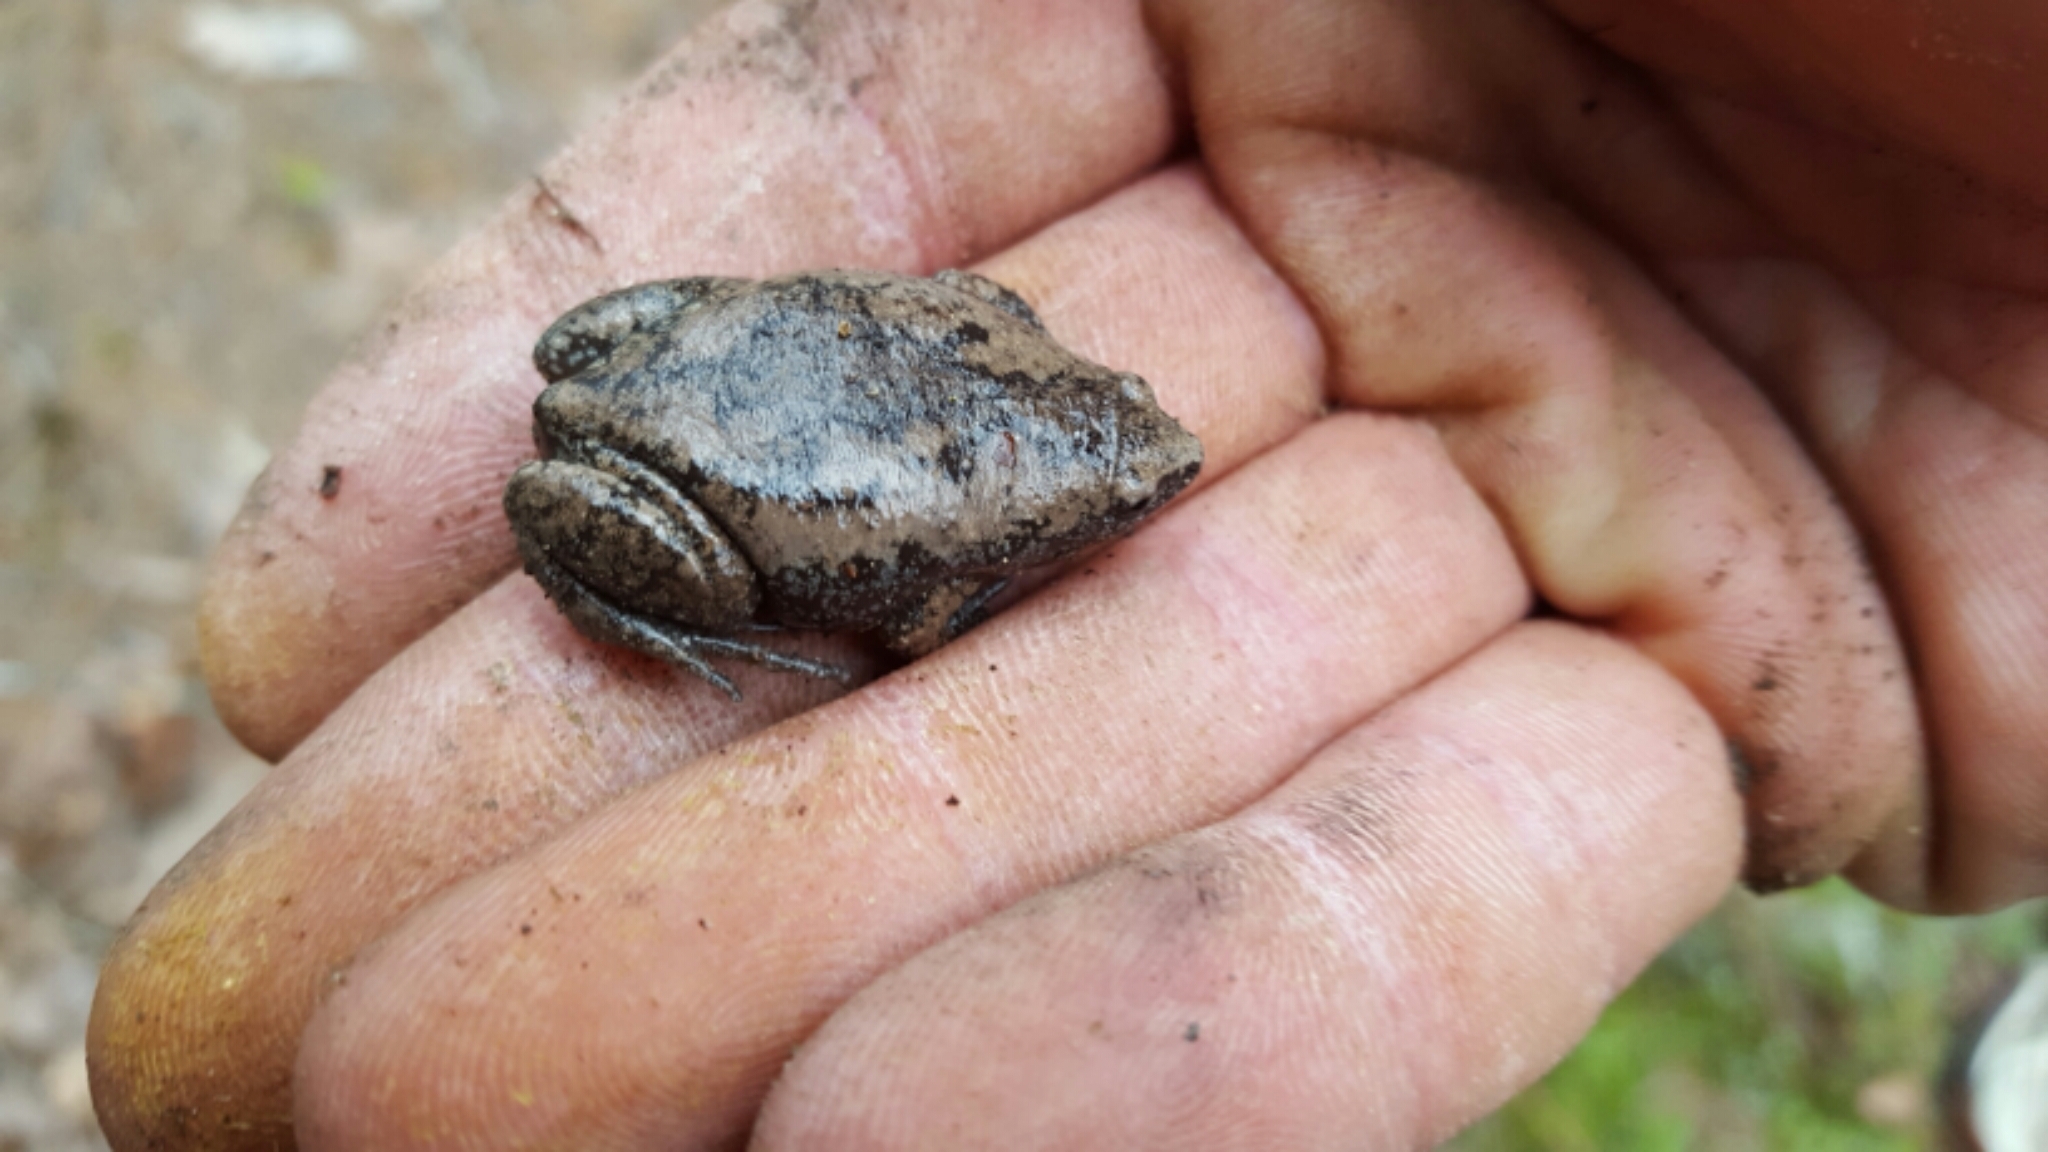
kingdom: Animalia
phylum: Chordata
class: Amphibia
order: Anura
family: Microhylidae
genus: Gastrophryne
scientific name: Gastrophryne carolinensis
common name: Eastern narrowmouth toad
